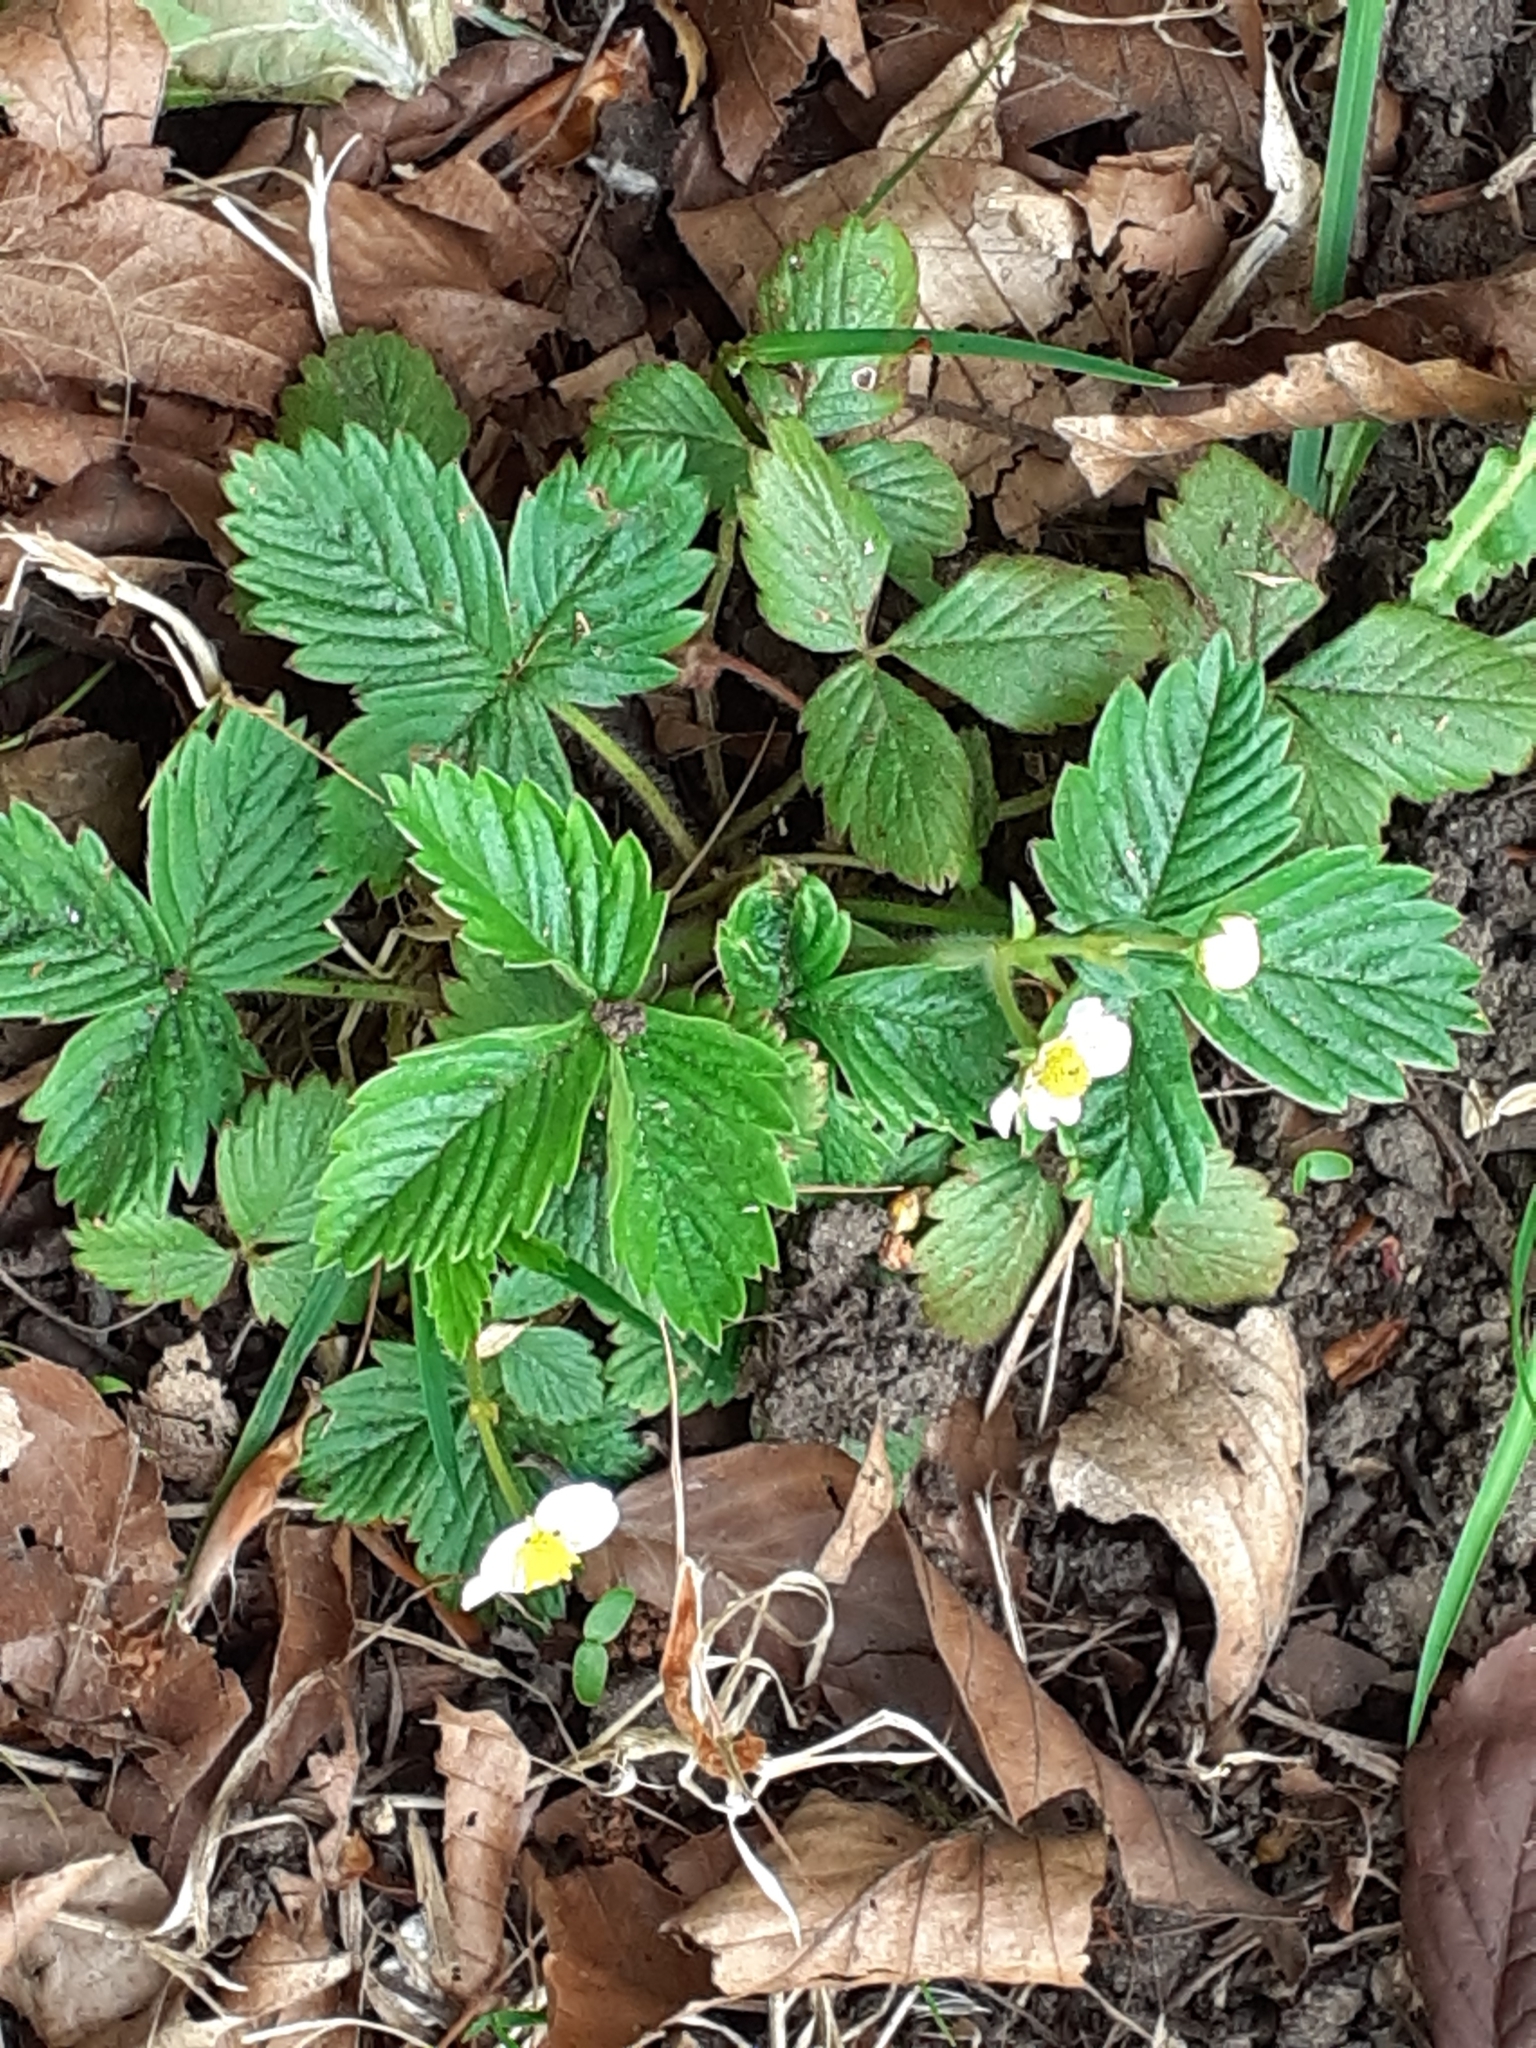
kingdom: Plantae
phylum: Tracheophyta
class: Magnoliopsida
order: Rosales
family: Rosaceae
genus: Fragaria
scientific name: Fragaria vesca
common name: Wild strawberry
